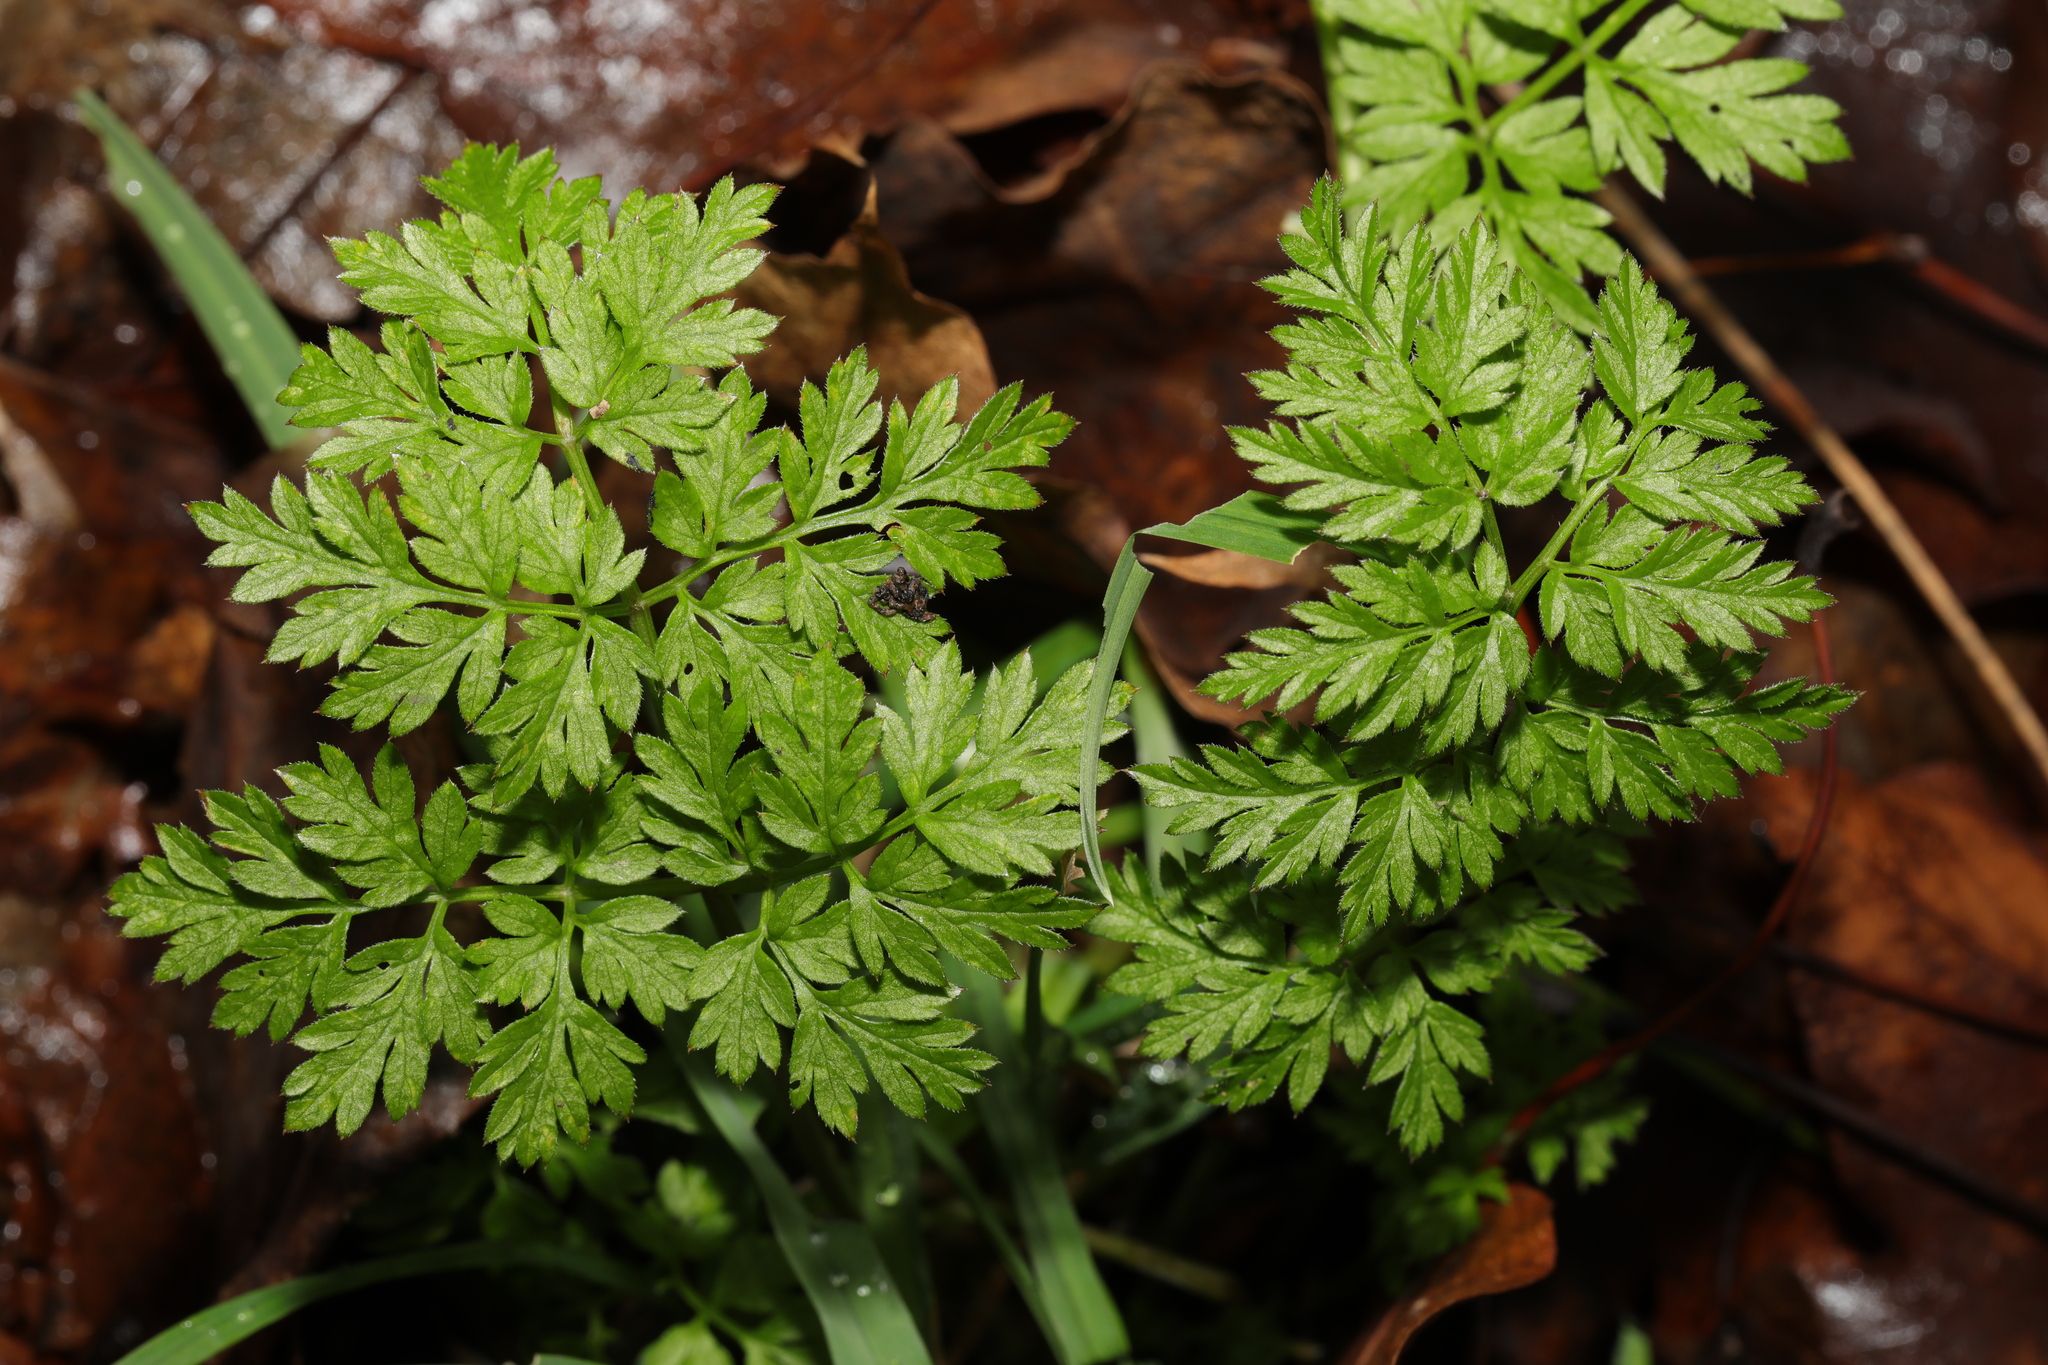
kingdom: Plantae
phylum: Tracheophyta
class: Magnoliopsida
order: Apiales
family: Apiaceae
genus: Anthriscus
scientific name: Anthriscus sylvestris
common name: Cow parsley
